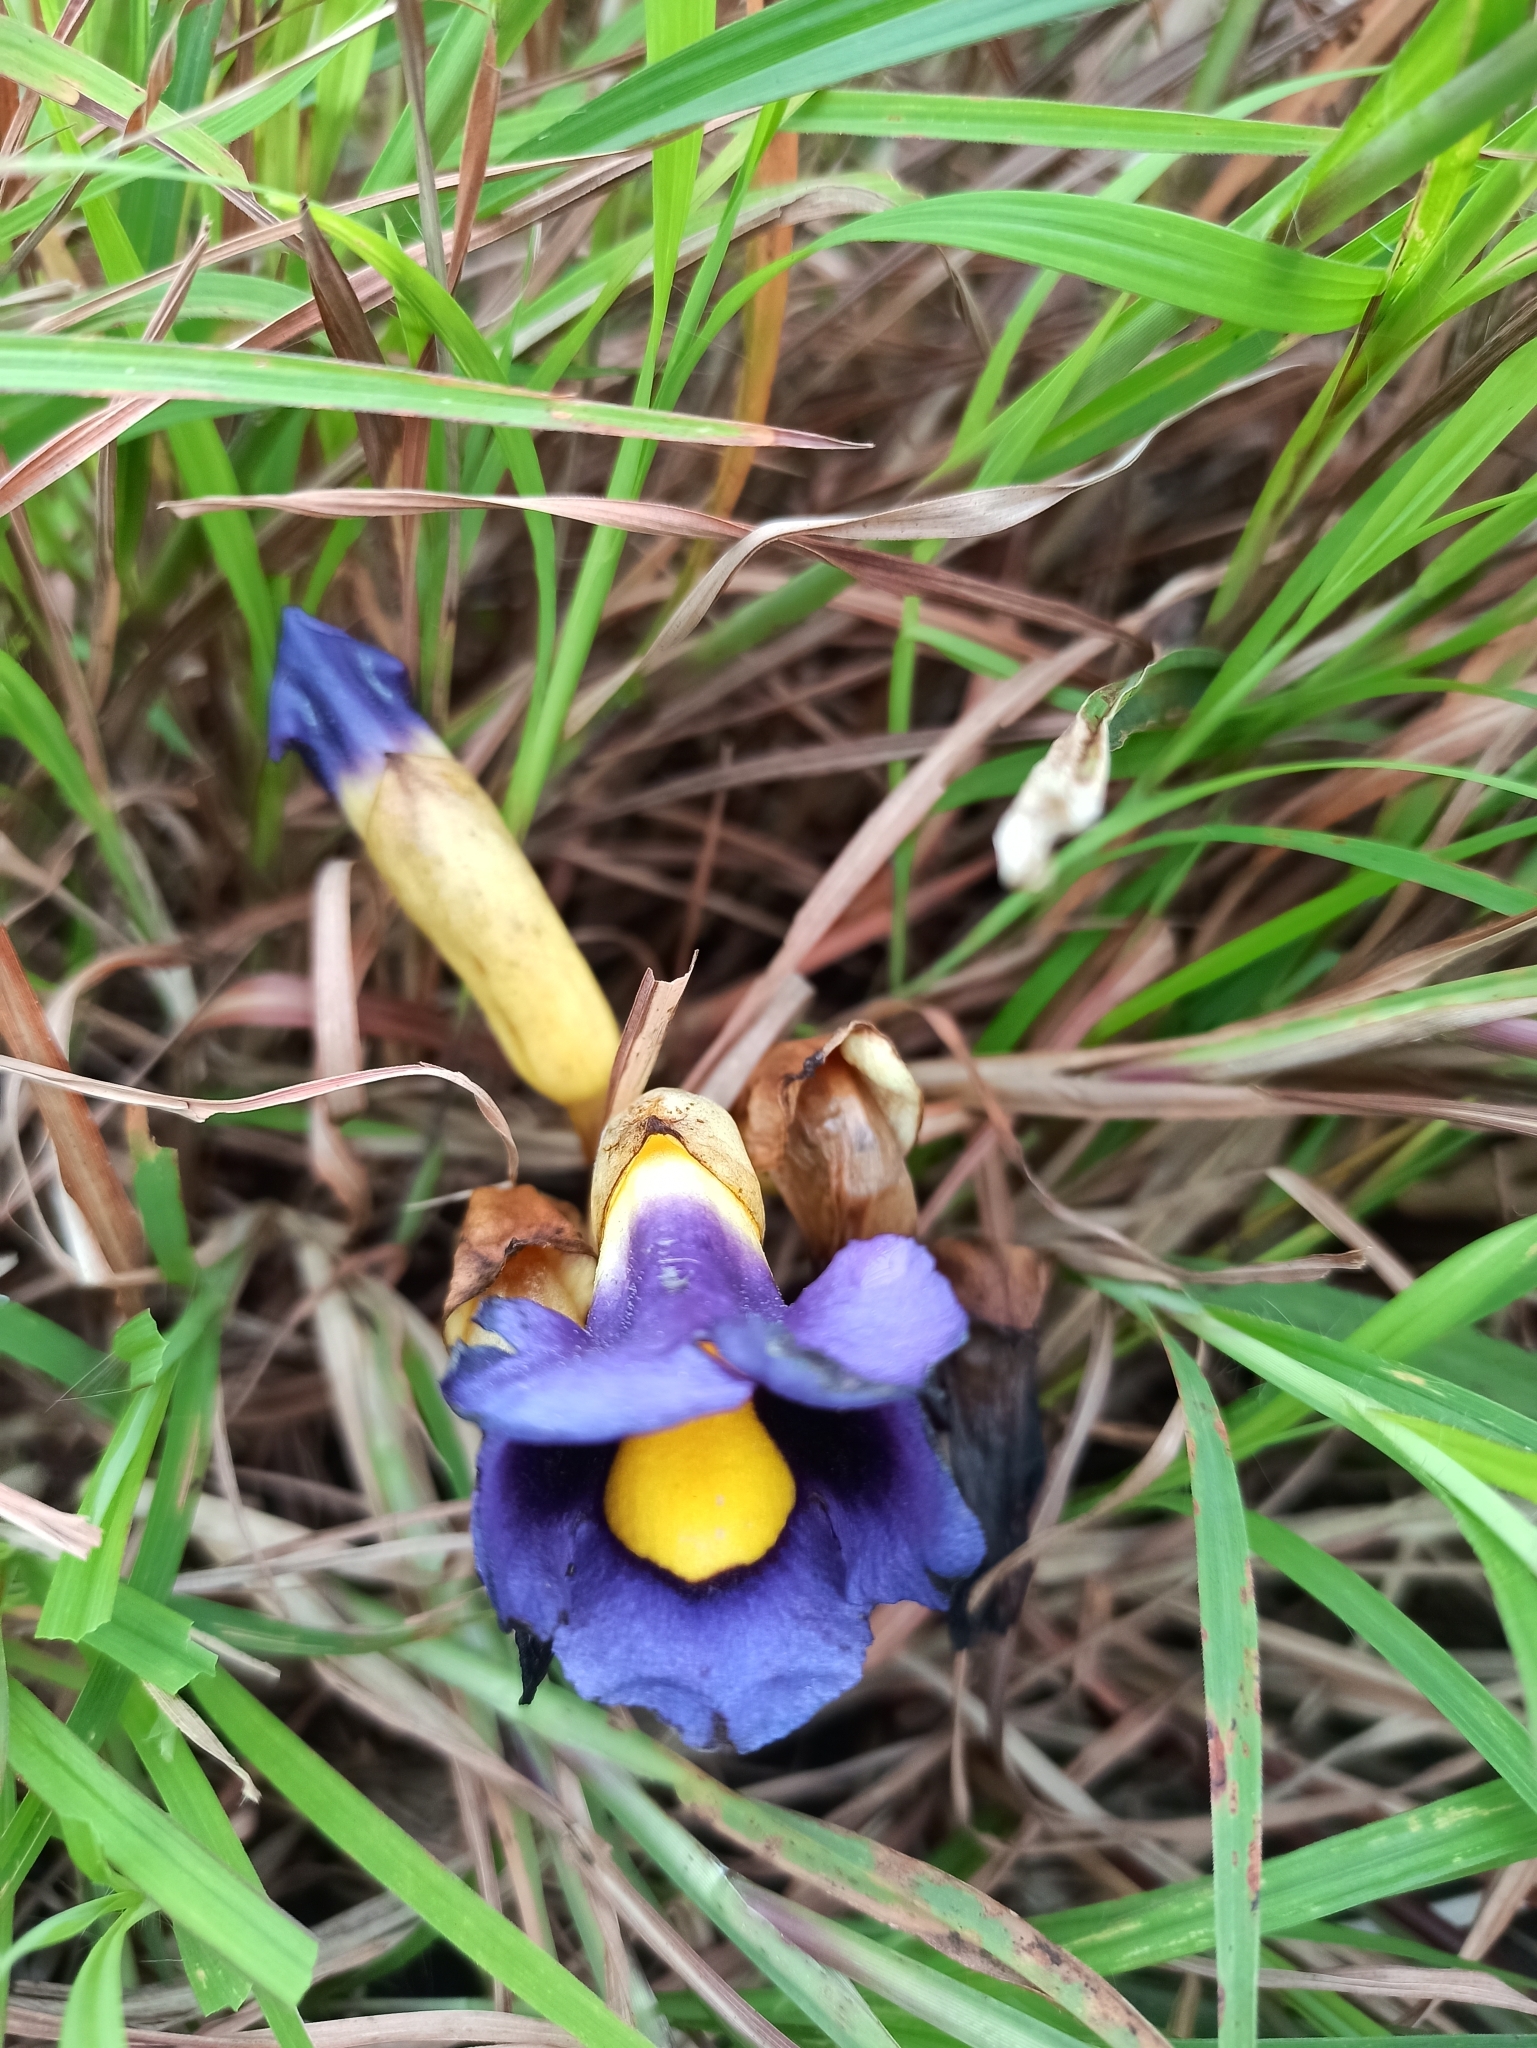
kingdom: Plantae
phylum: Tracheophyta
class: Magnoliopsida
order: Lamiales
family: Orobanchaceae
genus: Aeginetia
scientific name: Aeginetia acaulis
